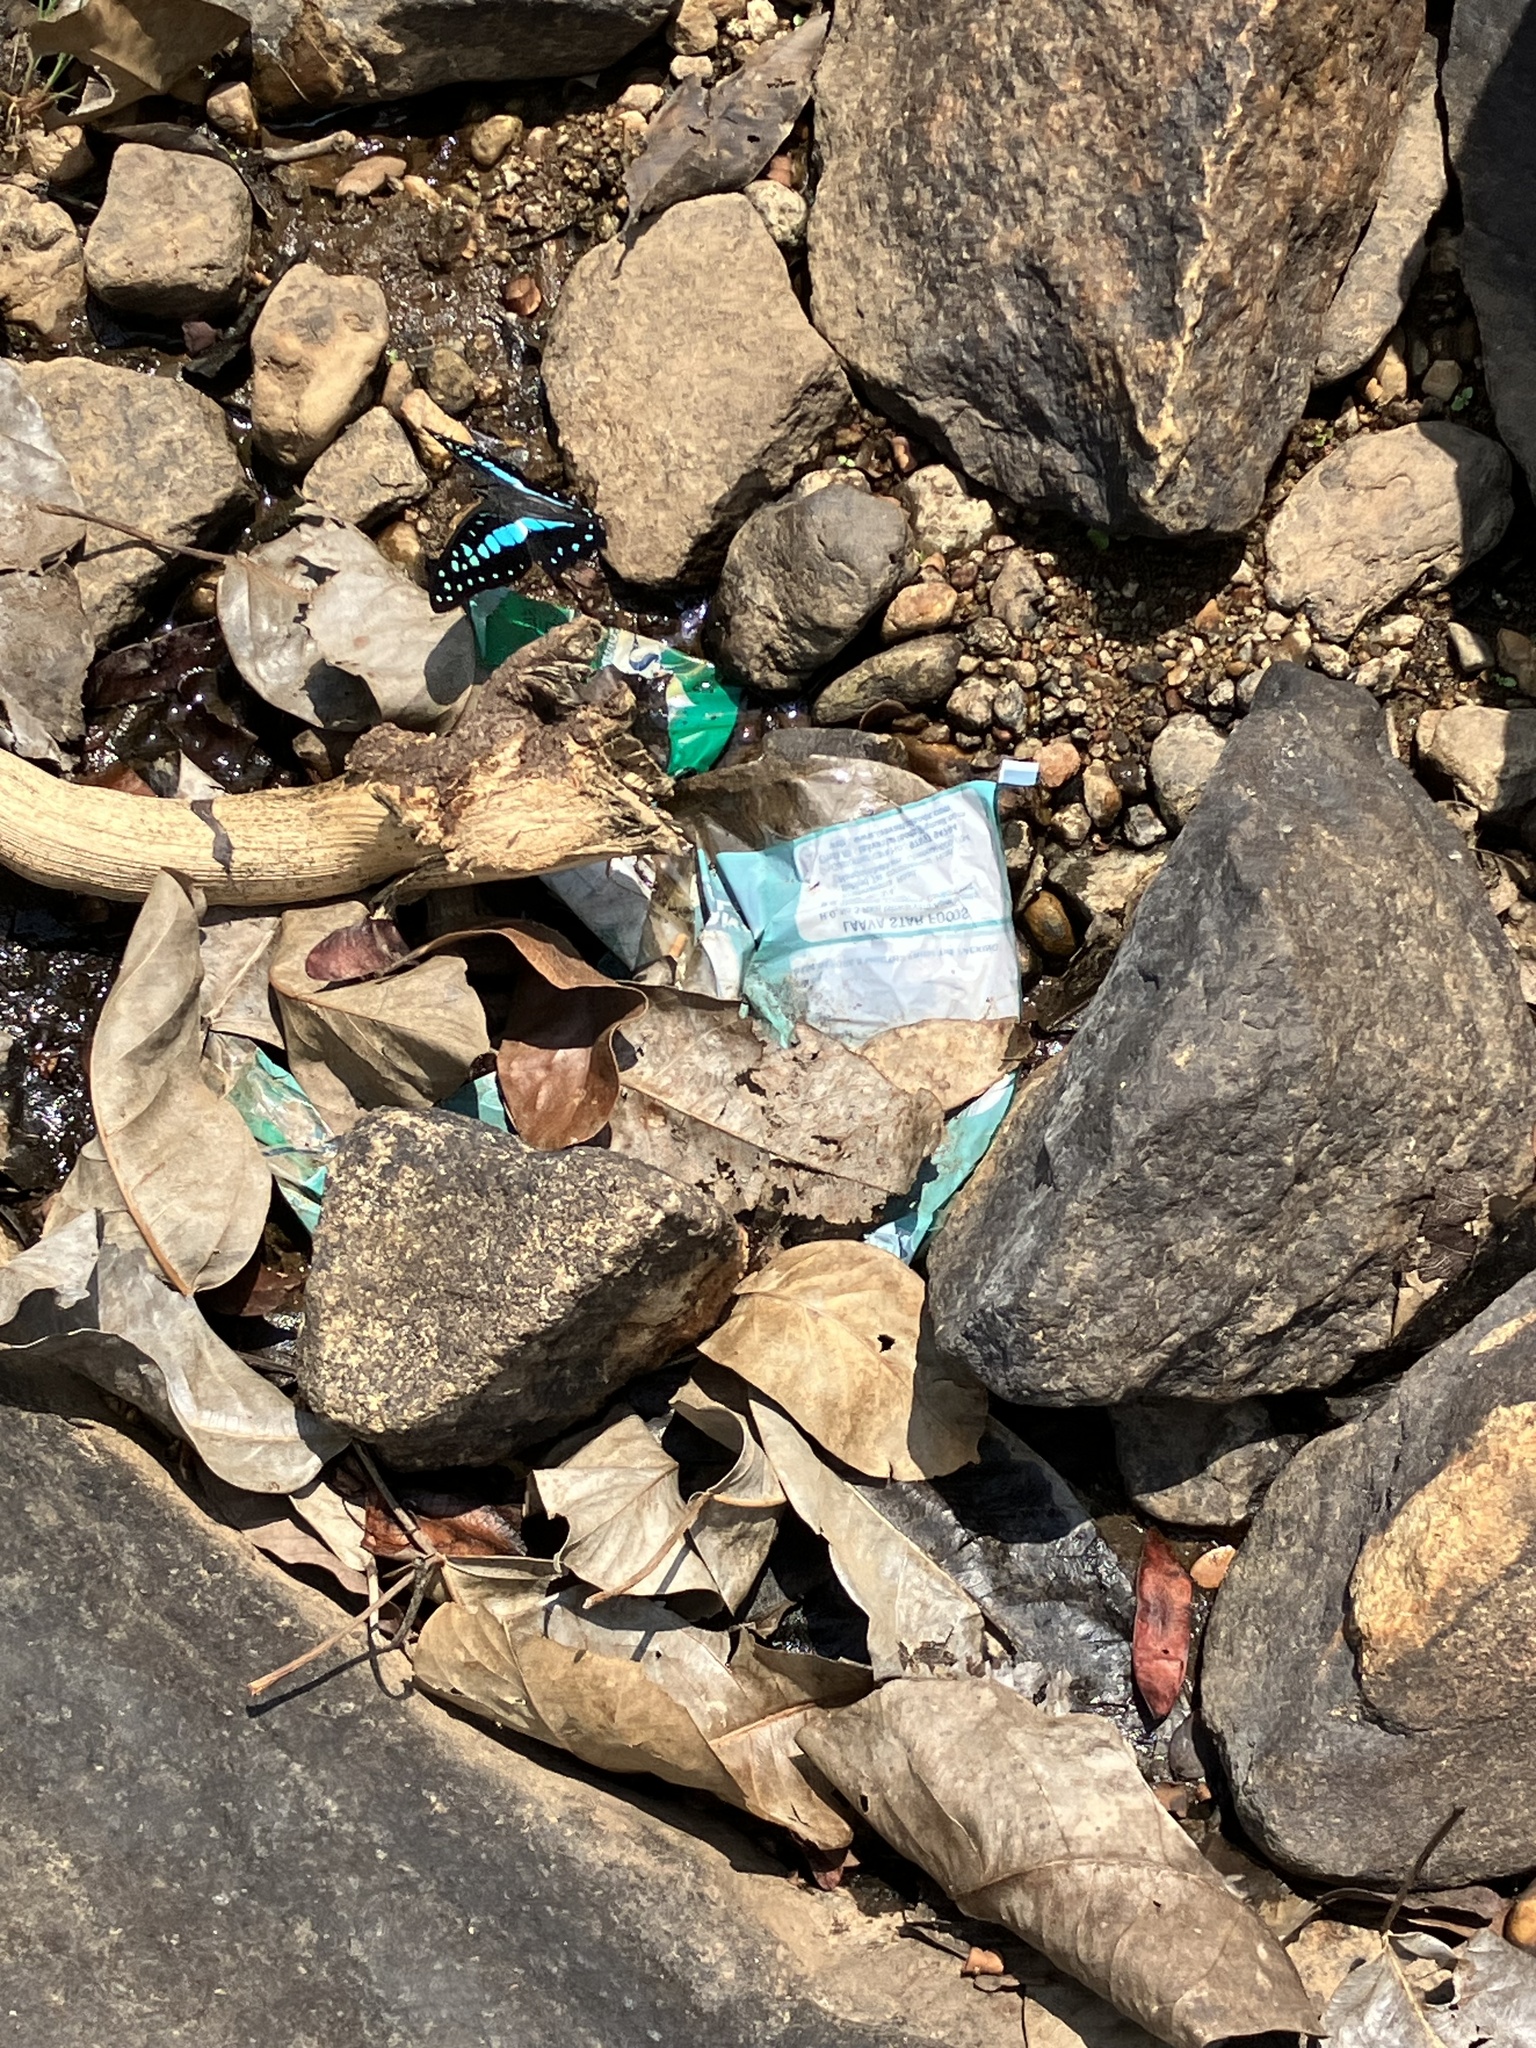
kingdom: Animalia
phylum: Arthropoda
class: Insecta
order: Lepidoptera
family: Papilionidae
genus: Graphium
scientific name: Graphium doson
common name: Common jay
